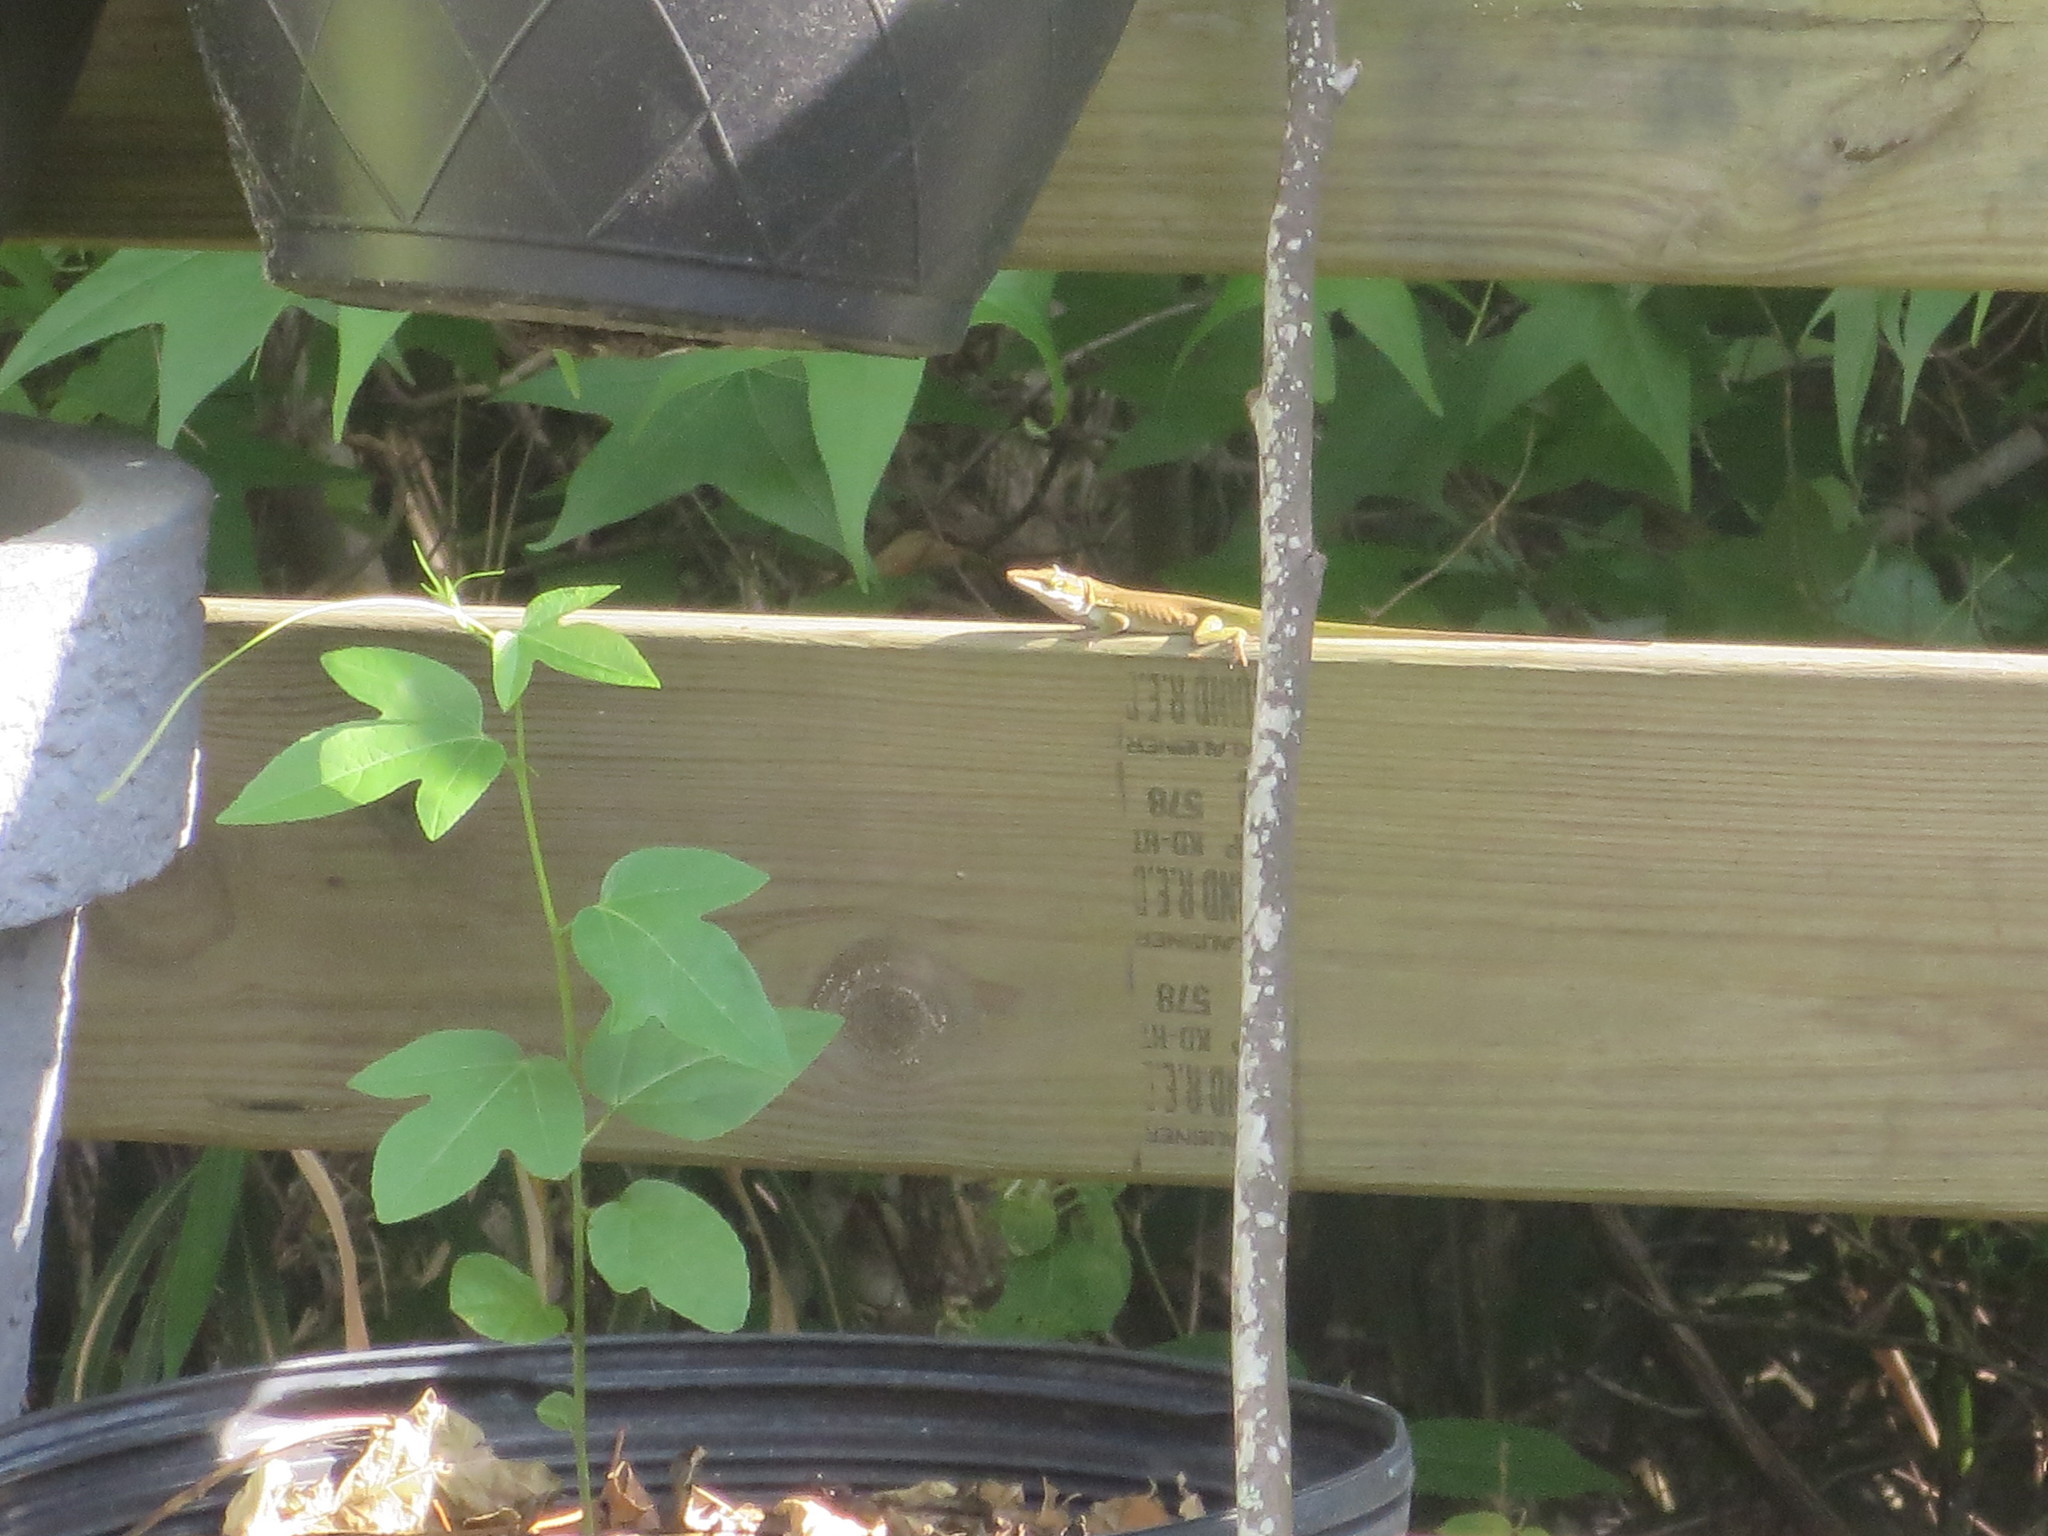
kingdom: Animalia
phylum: Chordata
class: Squamata
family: Dactyloidae
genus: Anolis
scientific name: Anolis carolinensis
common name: Green anole
